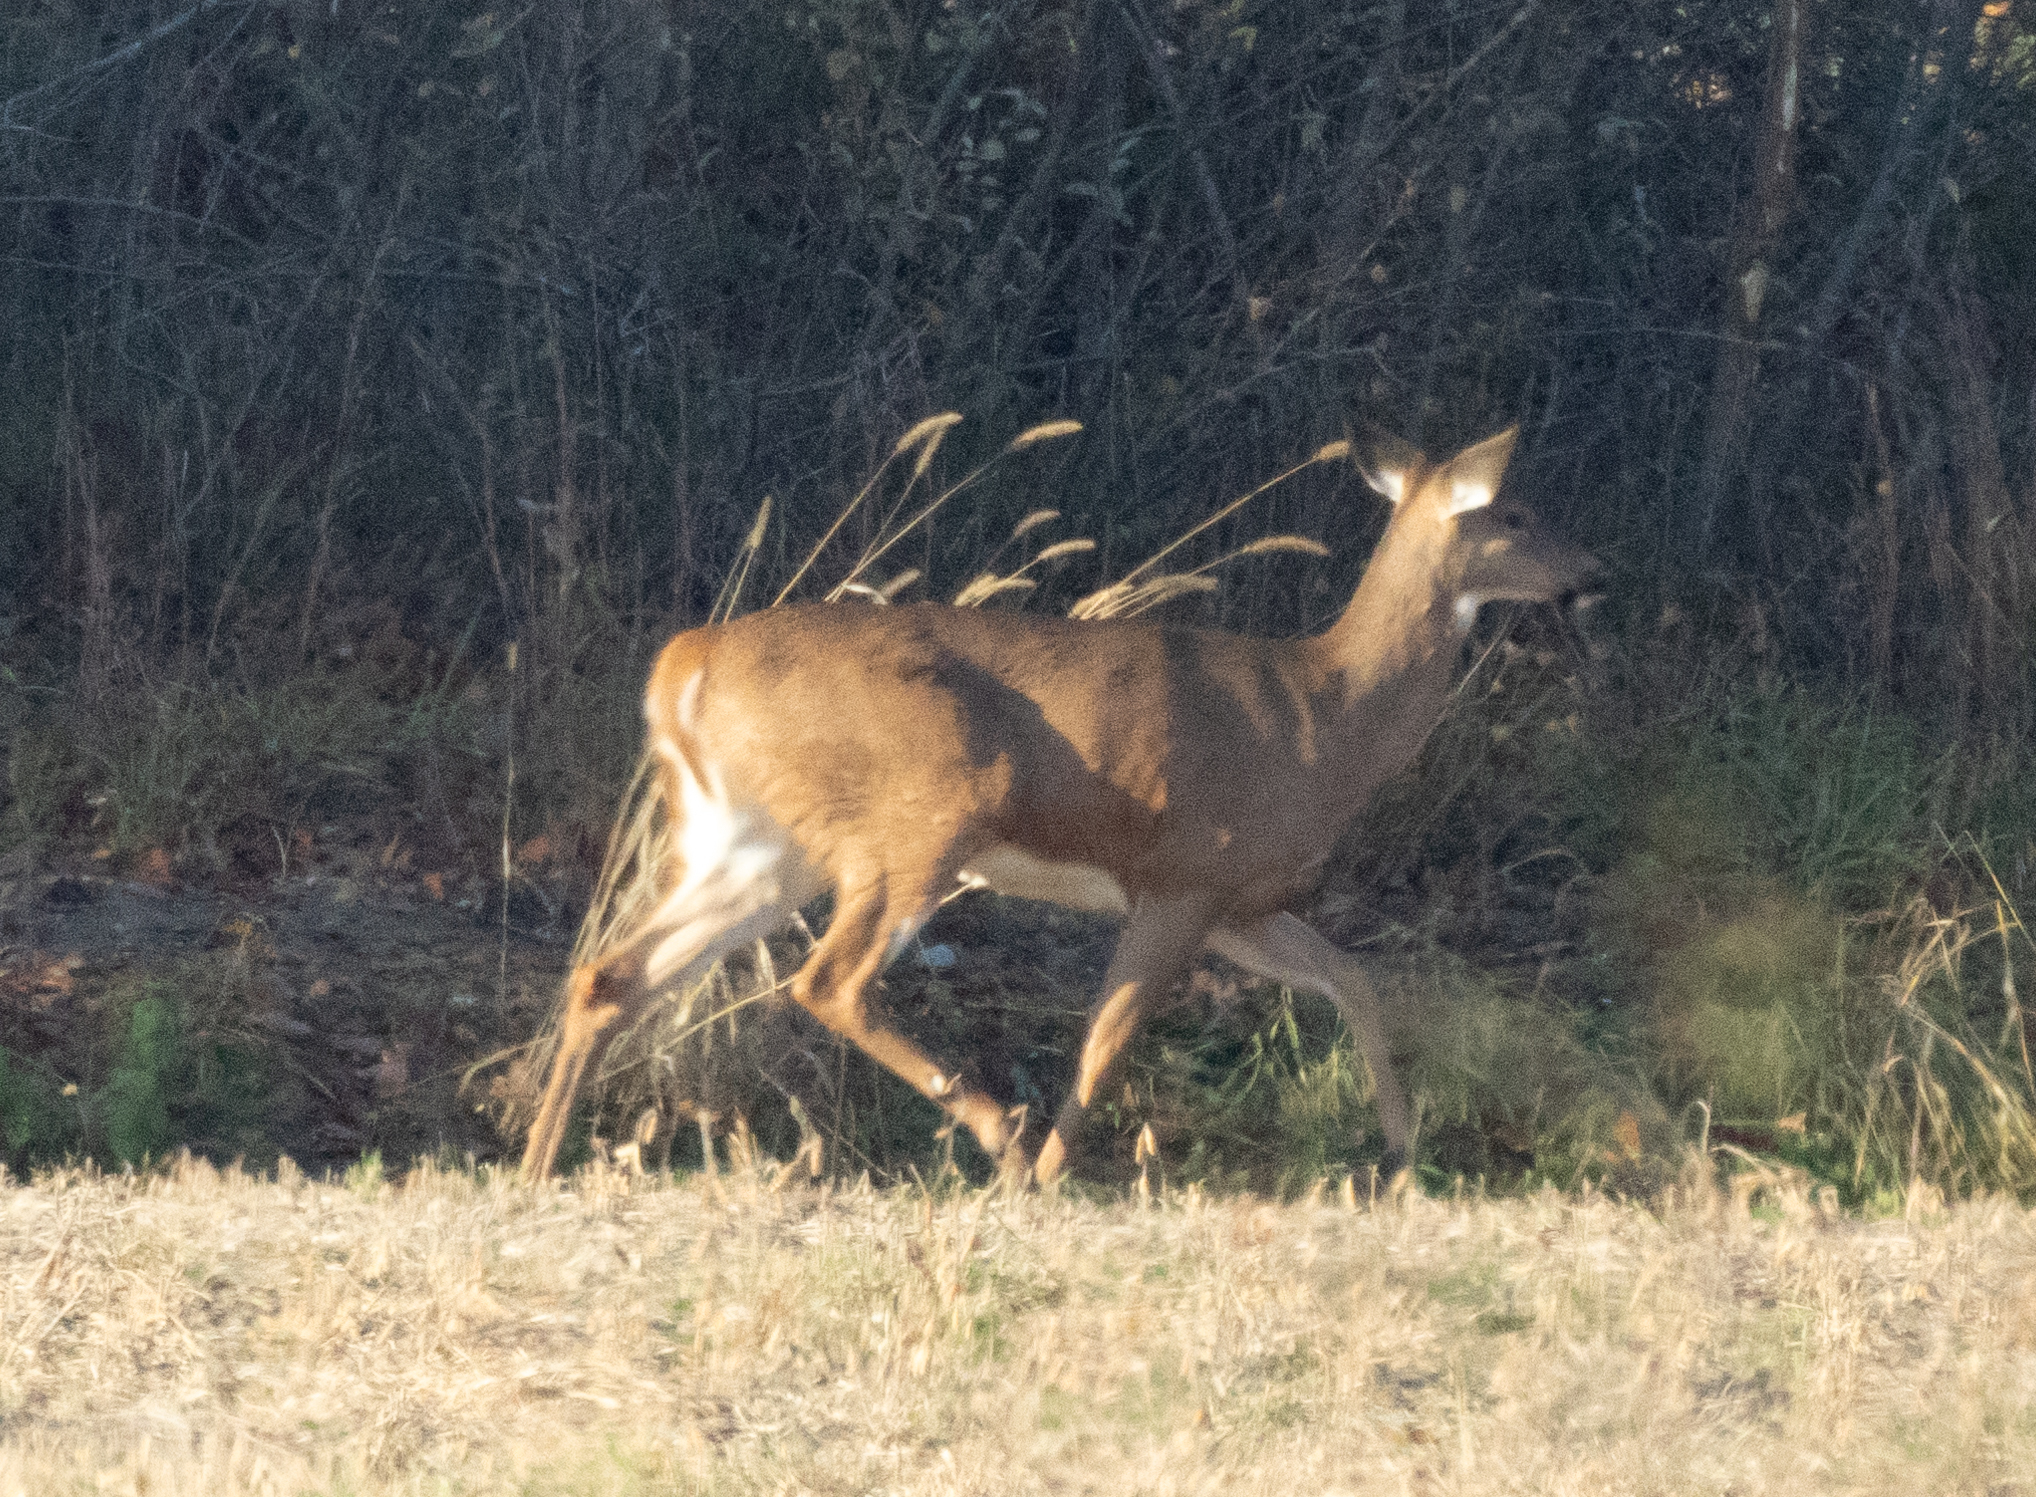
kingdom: Animalia
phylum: Chordata
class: Mammalia
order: Artiodactyla
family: Cervidae
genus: Odocoileus
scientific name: Odocoileus virginianus
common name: White-tailed deer
